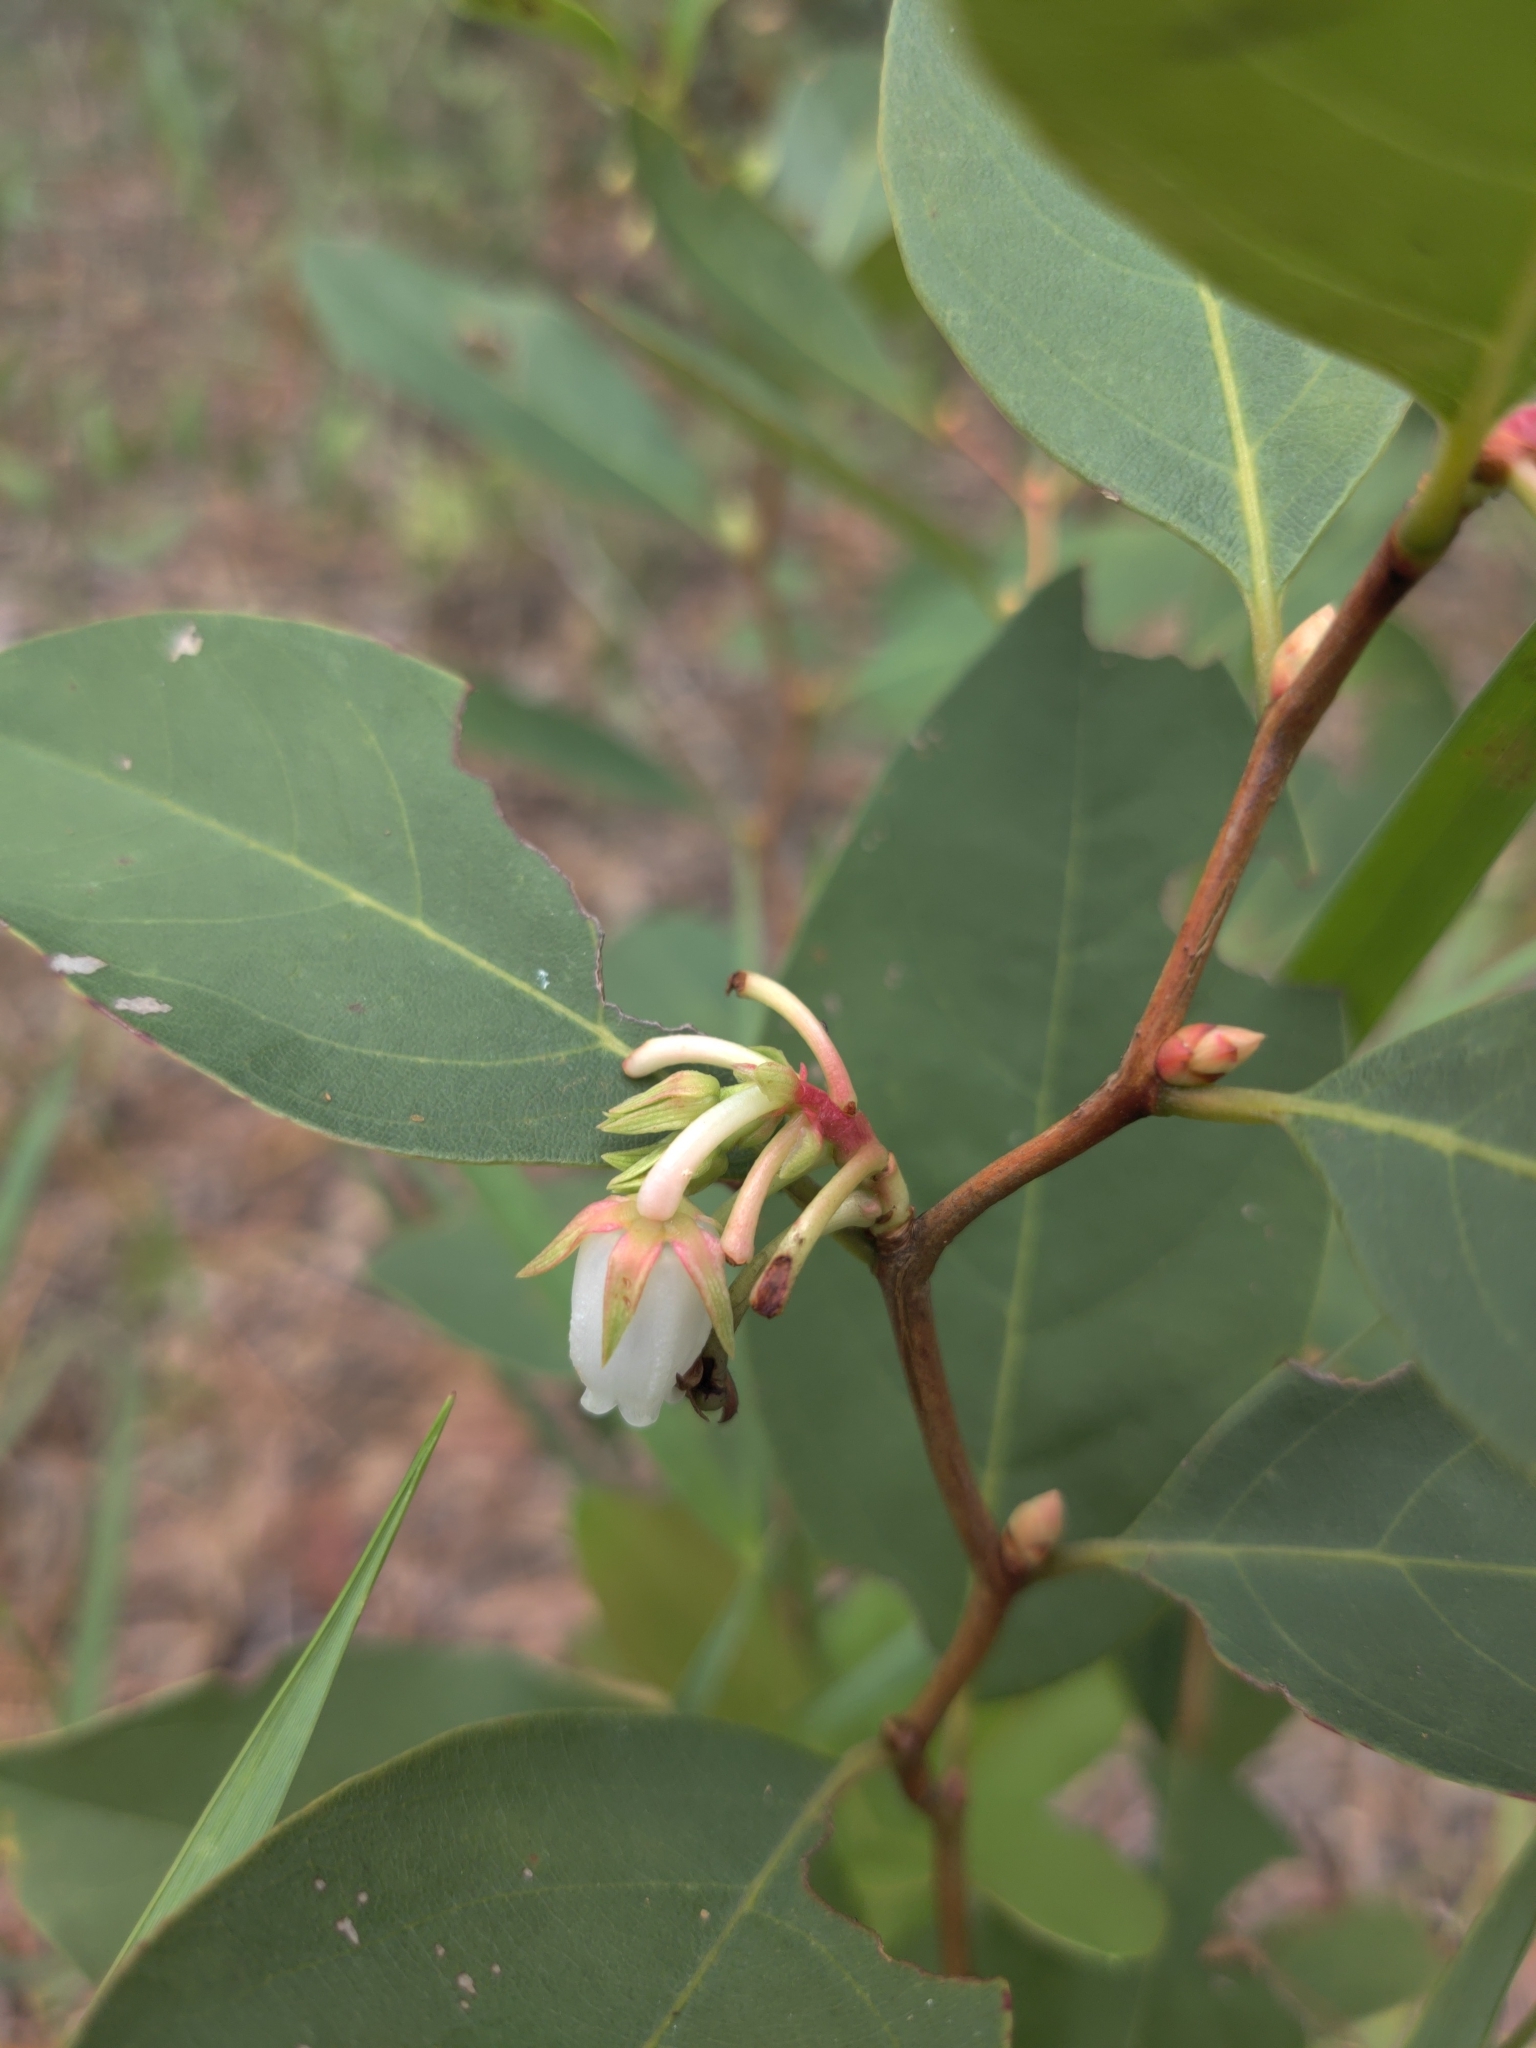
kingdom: Plantae
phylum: Tracheophyta
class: Magnoliopsida
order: Ericales
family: Ericaceae
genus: Lyonia
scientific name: Lyonia mariana
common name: Staggerbush
